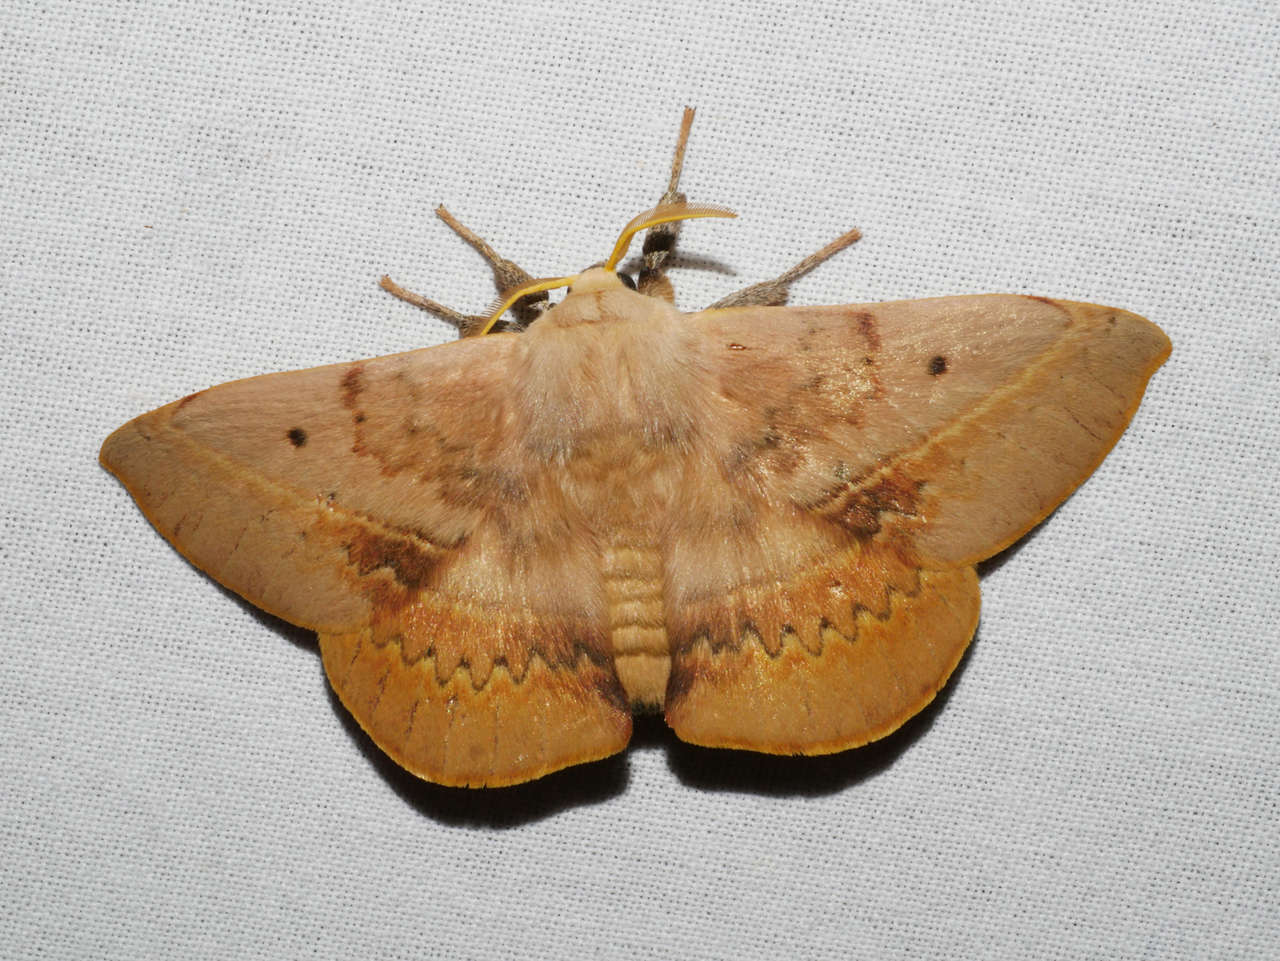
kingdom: Animalia
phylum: Arthropoda
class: Insecta
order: Lepidoptera
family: Anthelidae
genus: Anthela
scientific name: Anthela varia
